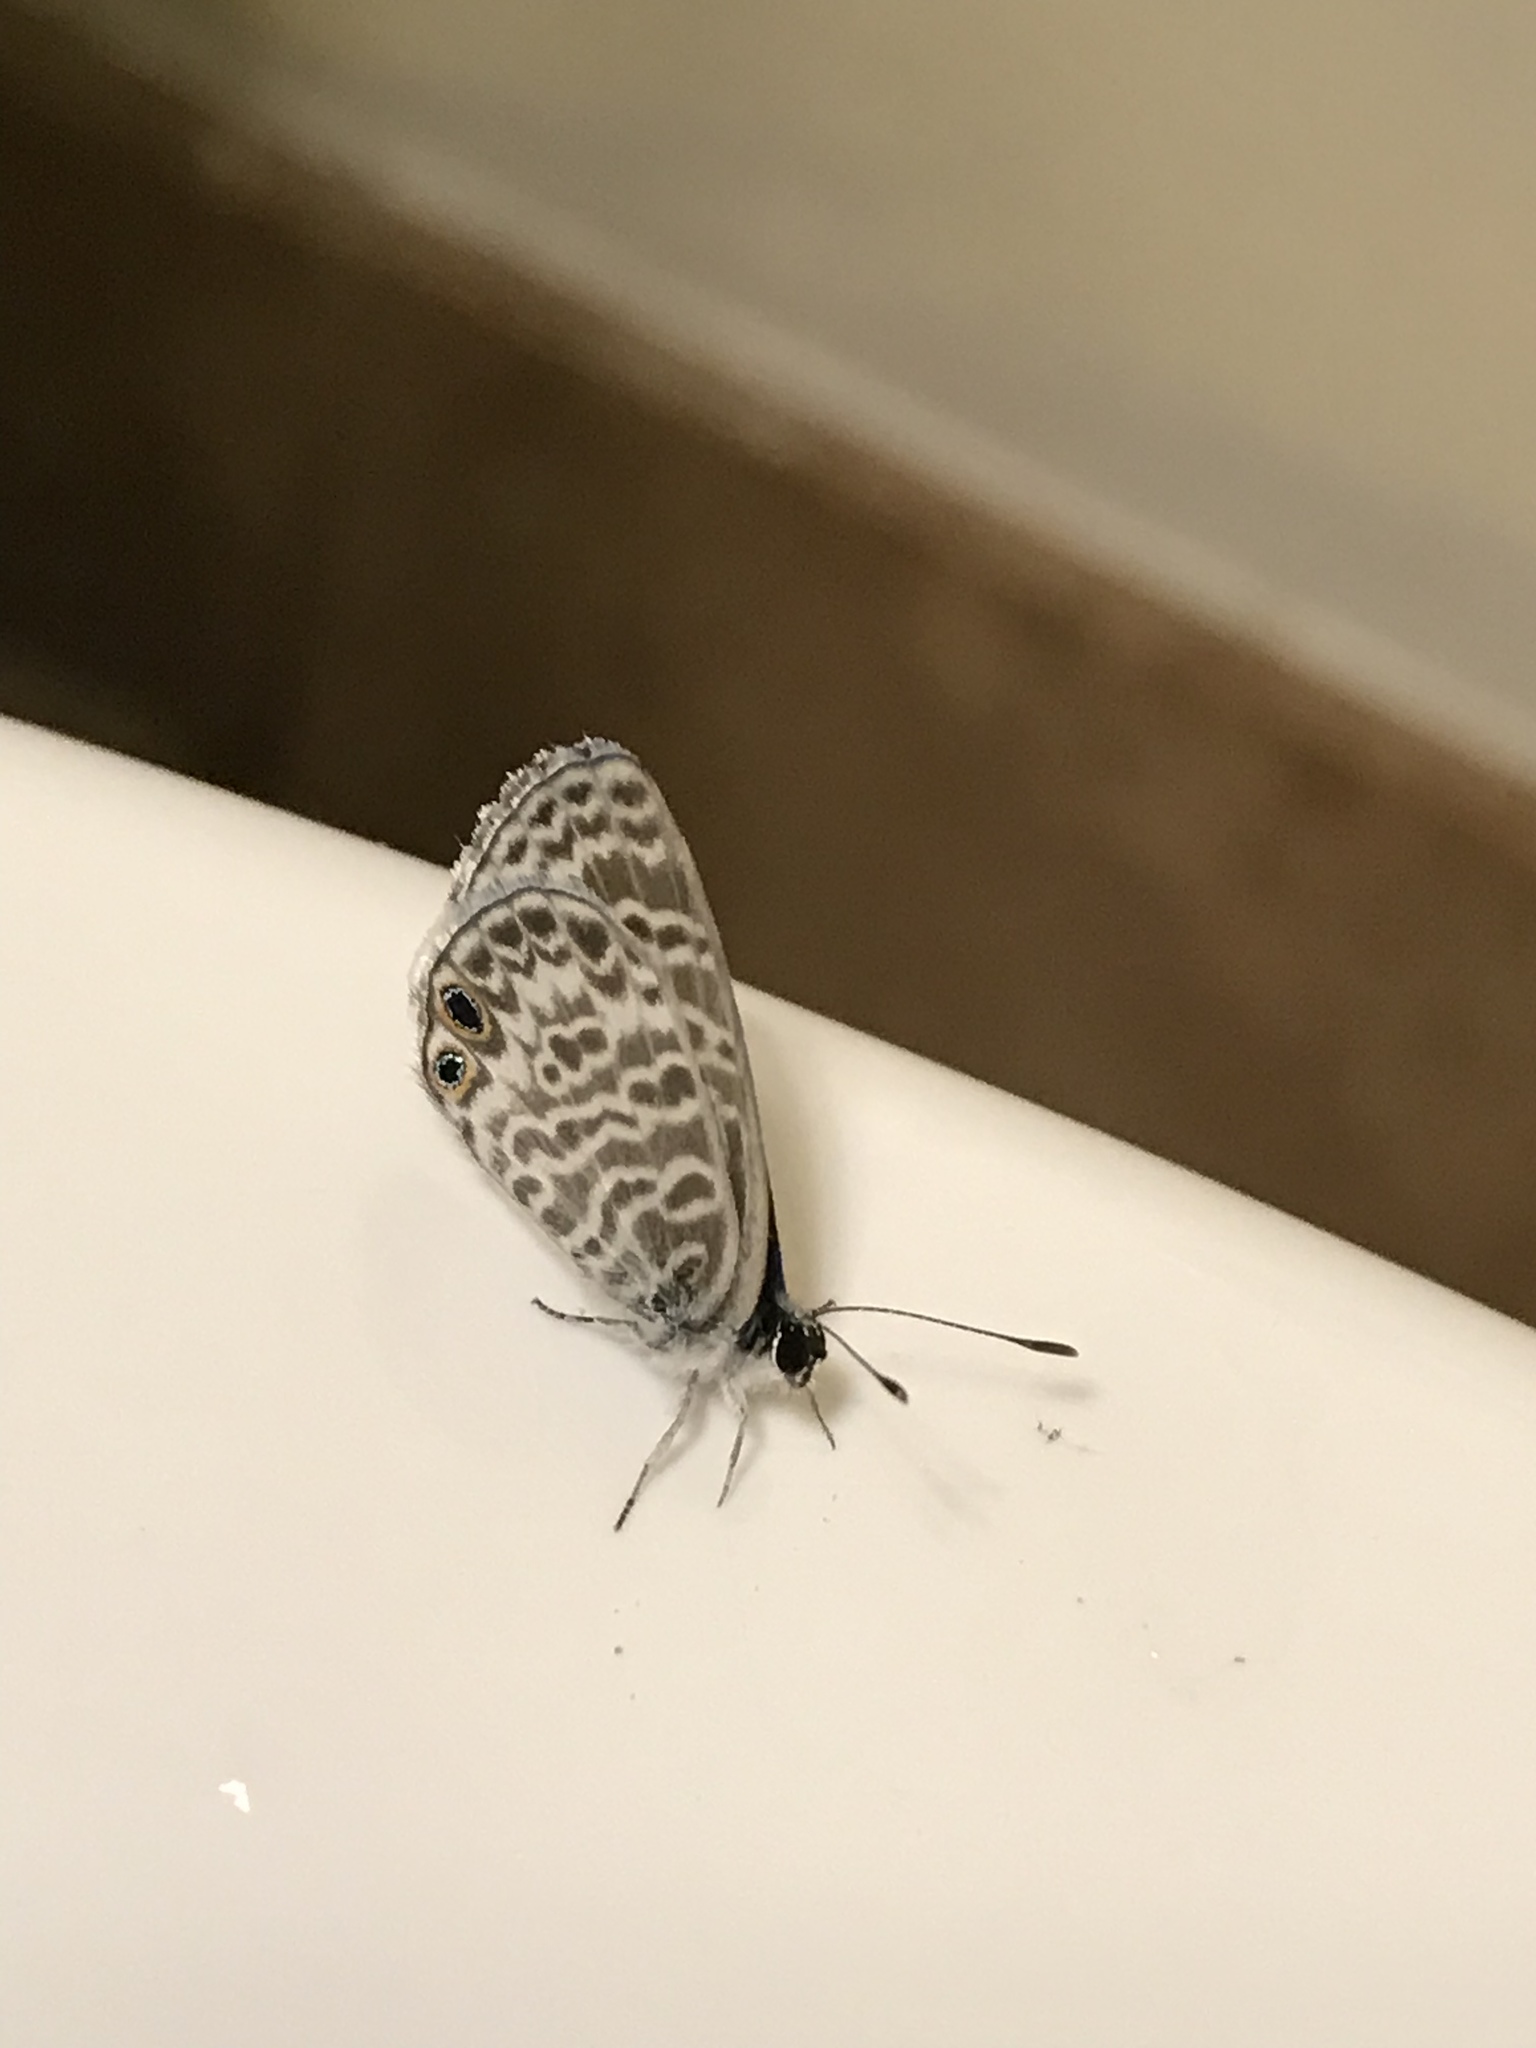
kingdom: Animalia
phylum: Arthropoda
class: Insecta
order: Lepidoptera
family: Lycaenidae
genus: Leptotes
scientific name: Leptotes marina
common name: Marine blue
